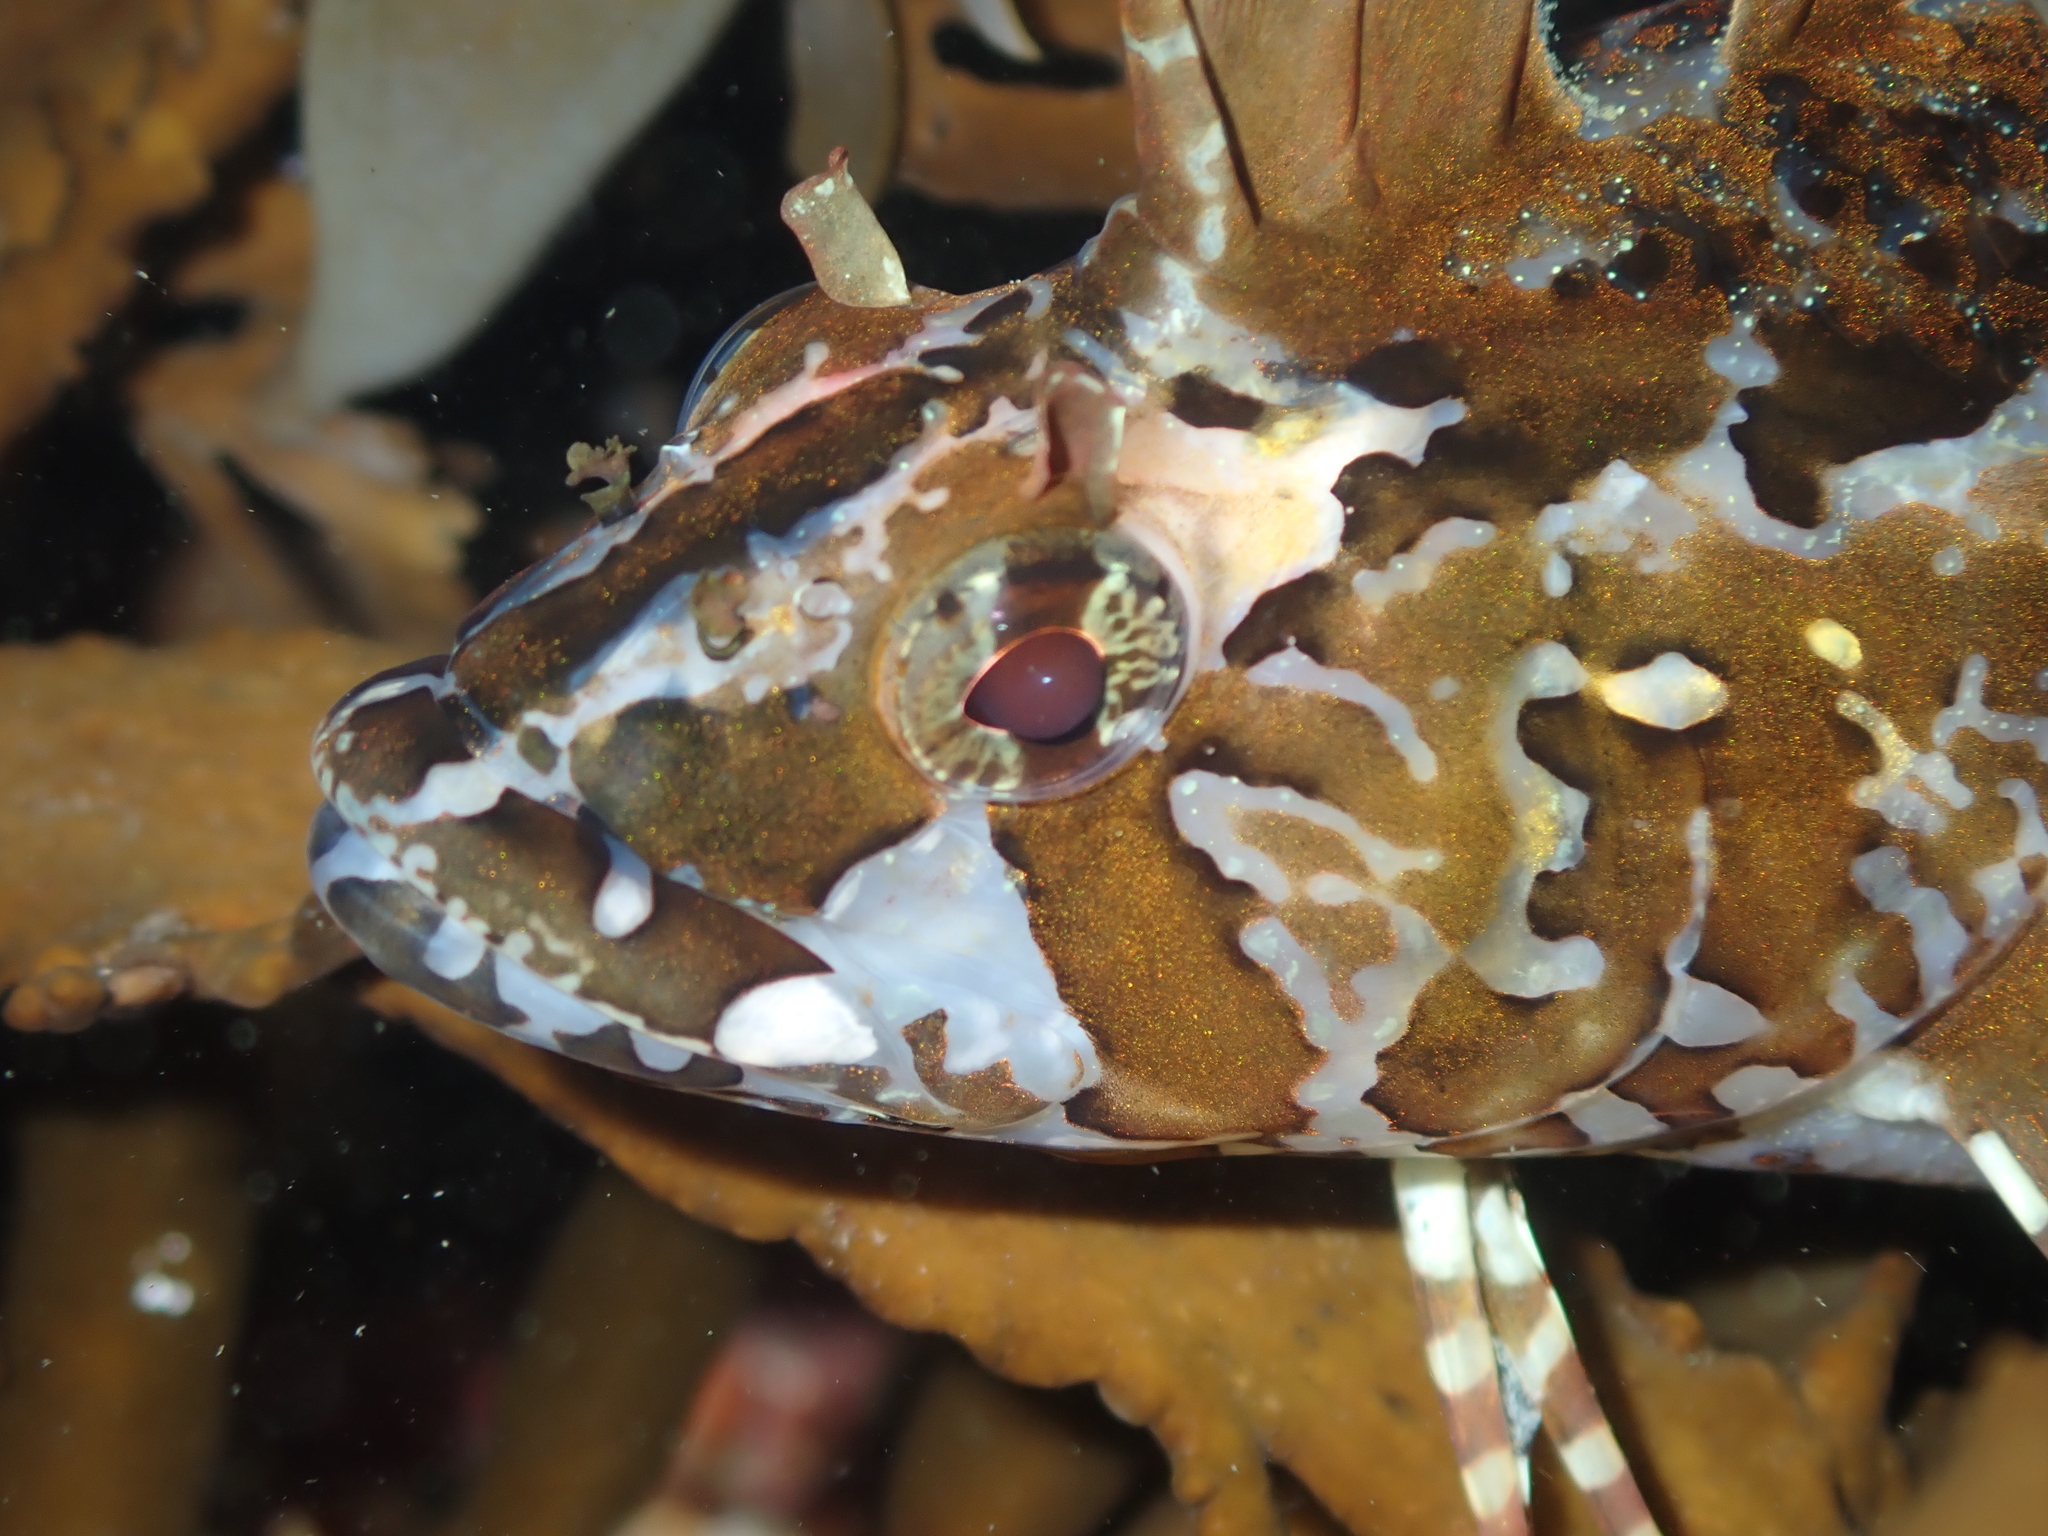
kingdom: Animalia
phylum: Chordata
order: Perciformes
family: Tripterygiidae
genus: Notoclinus
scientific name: Notoclinus fenestratus
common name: New zealand topknot
